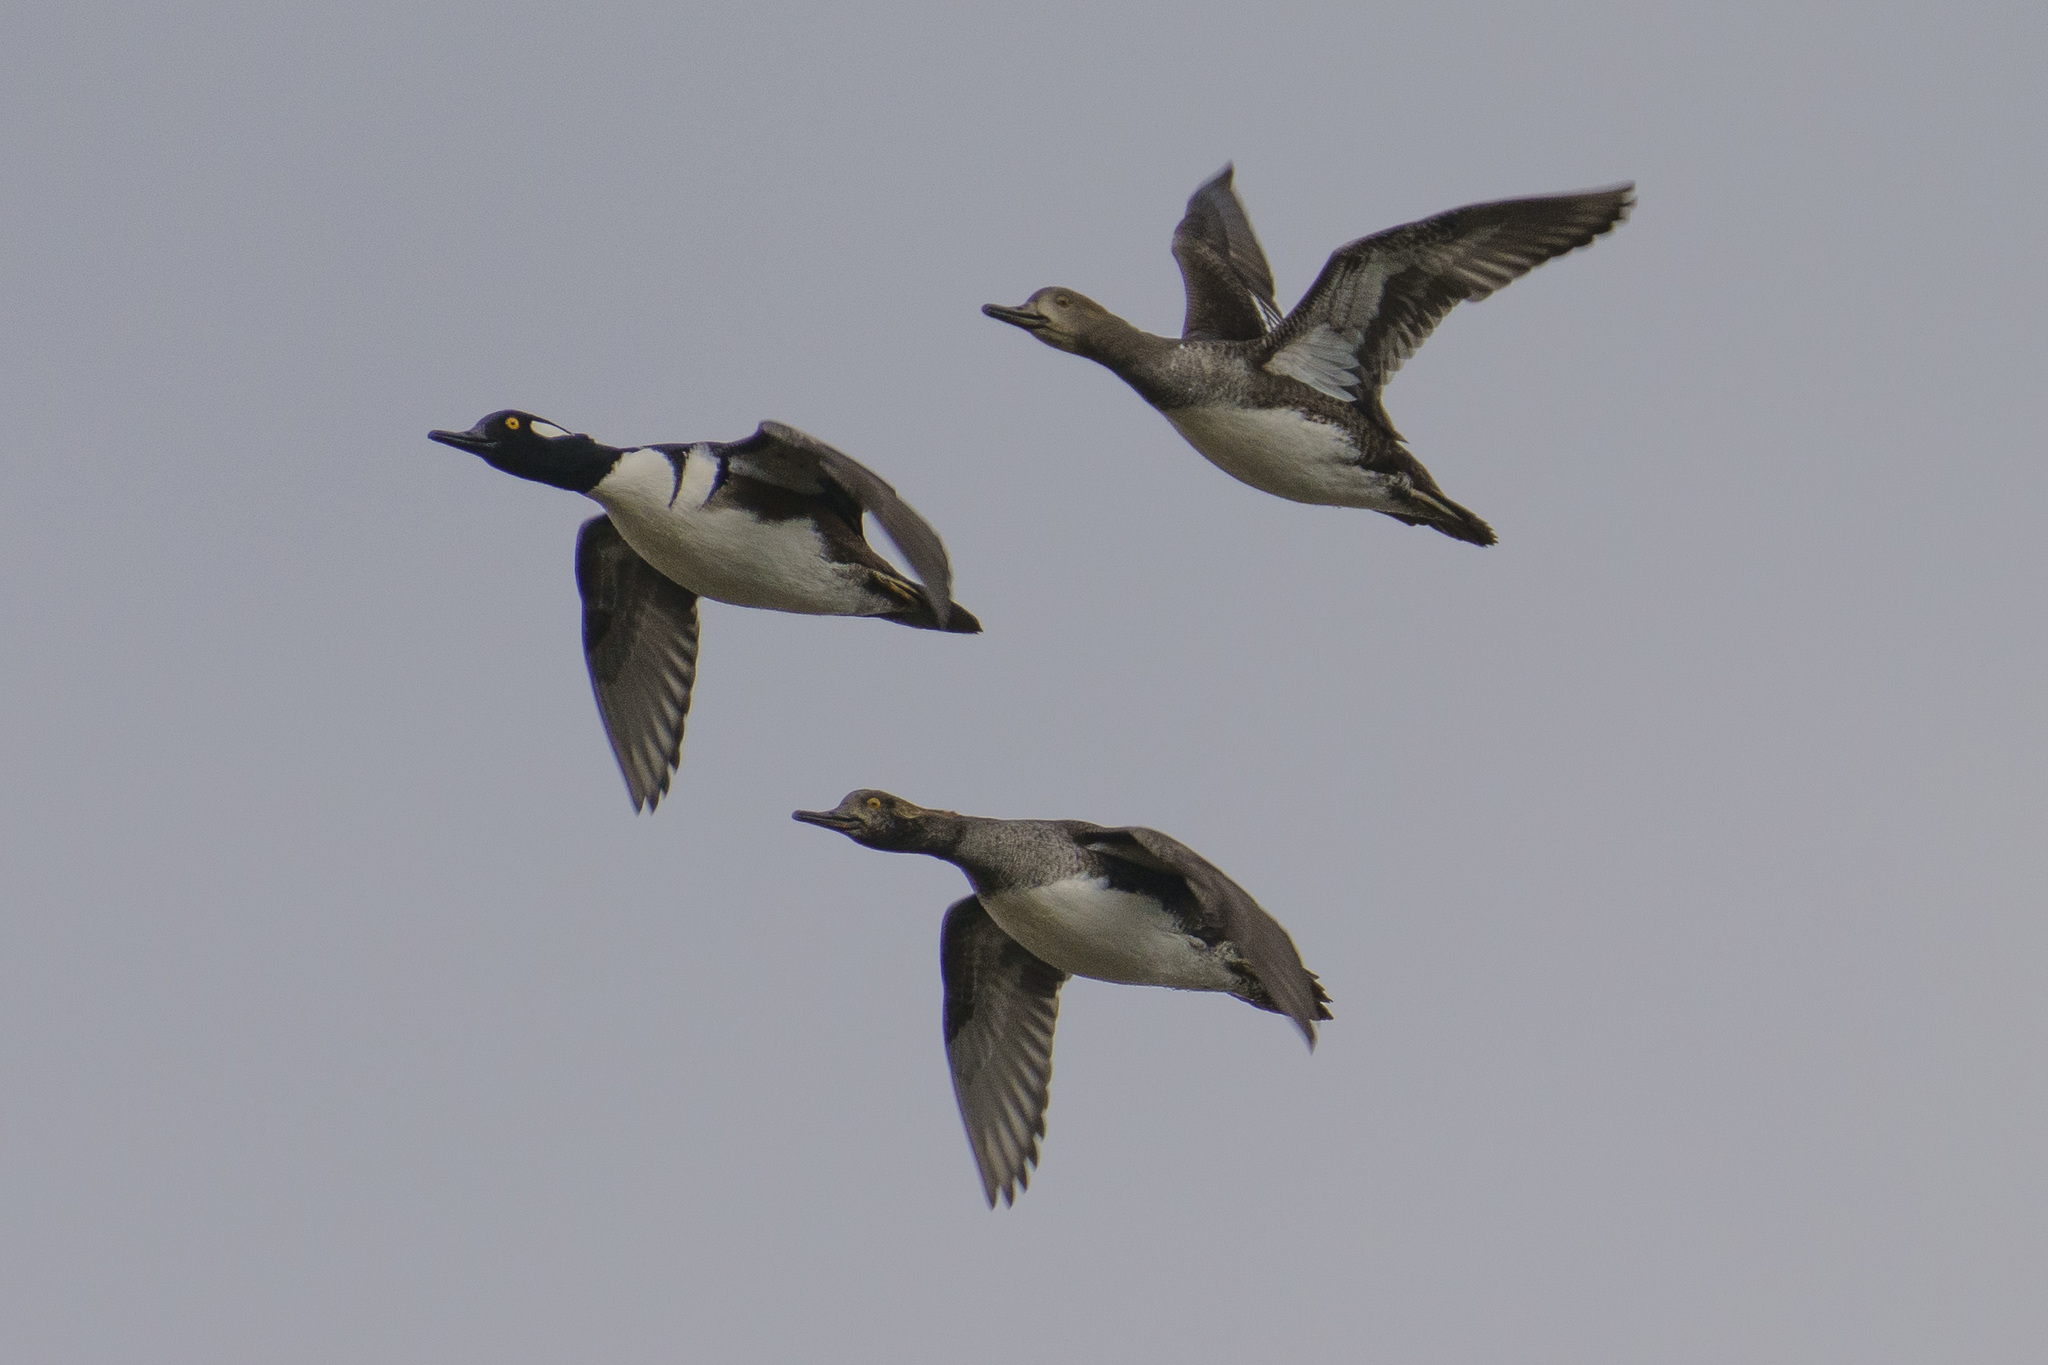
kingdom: Animalia
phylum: Chordata
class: Aves
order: Anseriformes
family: Anatidae
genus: Lophodytes
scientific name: Lophodytes cucullatus
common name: Hooded merganser
